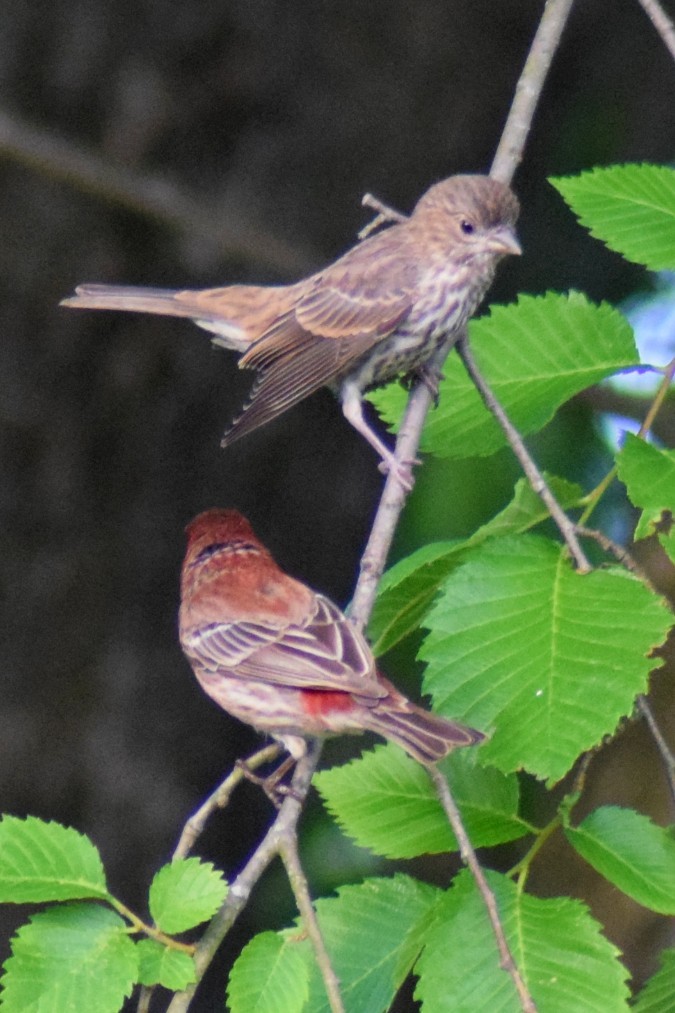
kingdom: Animalia
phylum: Chordata
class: Aves
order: Passeriformes
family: Fringillidae
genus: Haemorhous
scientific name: Haemorhous mexicanus
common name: House finch
